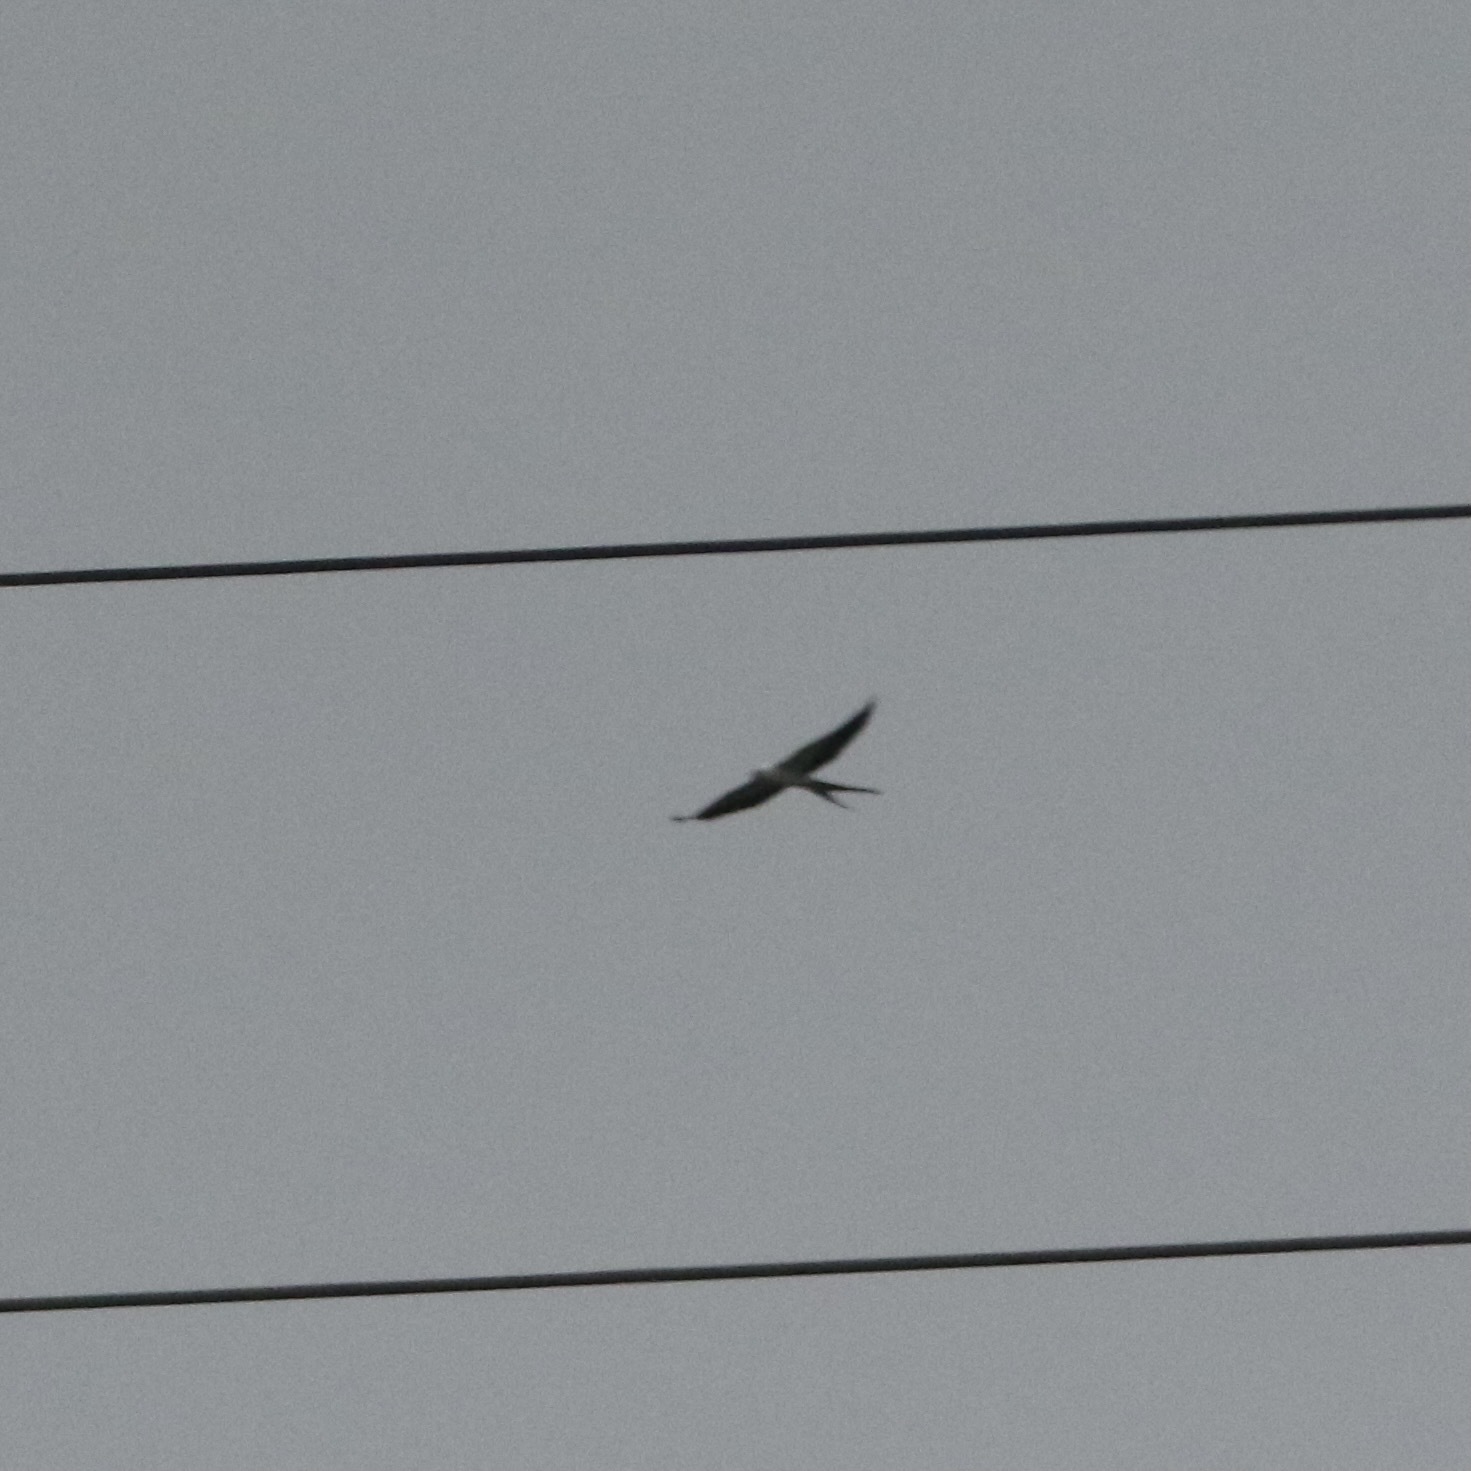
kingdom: Animalia
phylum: Chordata
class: Aves
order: Accipitriformes
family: Accipitridae
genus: Elanoides
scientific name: Elanoides forficatus
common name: Swallow-tailed kite
